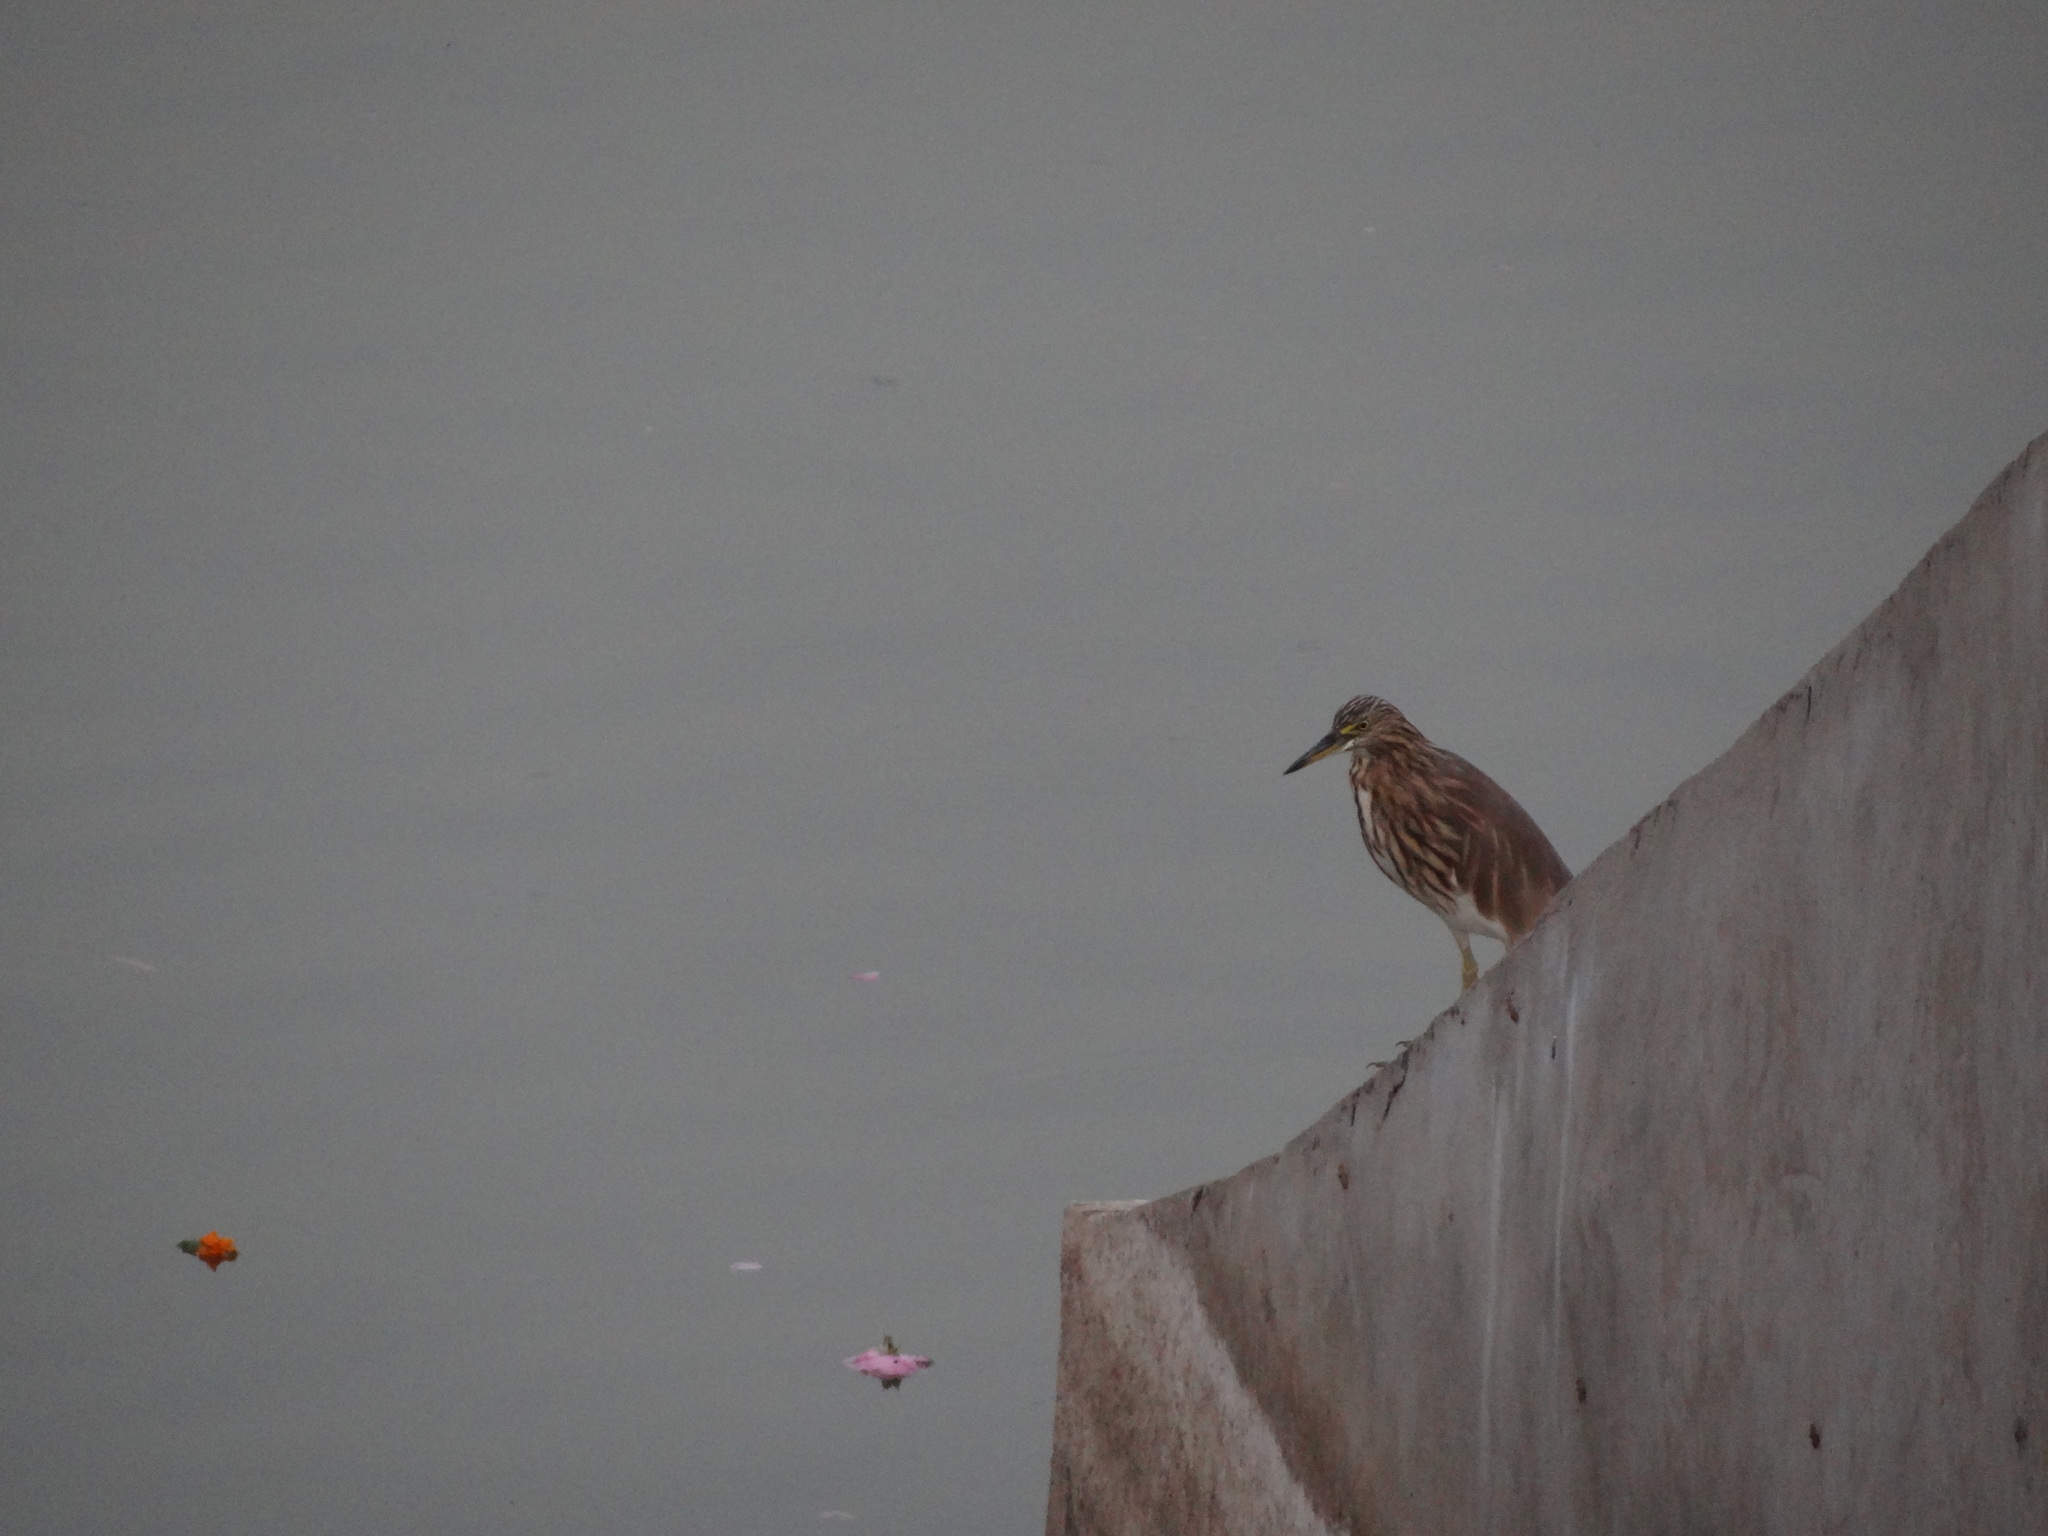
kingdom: Animalia
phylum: Chordata
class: Aves
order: Pelecaniformes
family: Ardeidae
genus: Ardeola
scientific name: Ardeola grayii
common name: Indian pond heron
